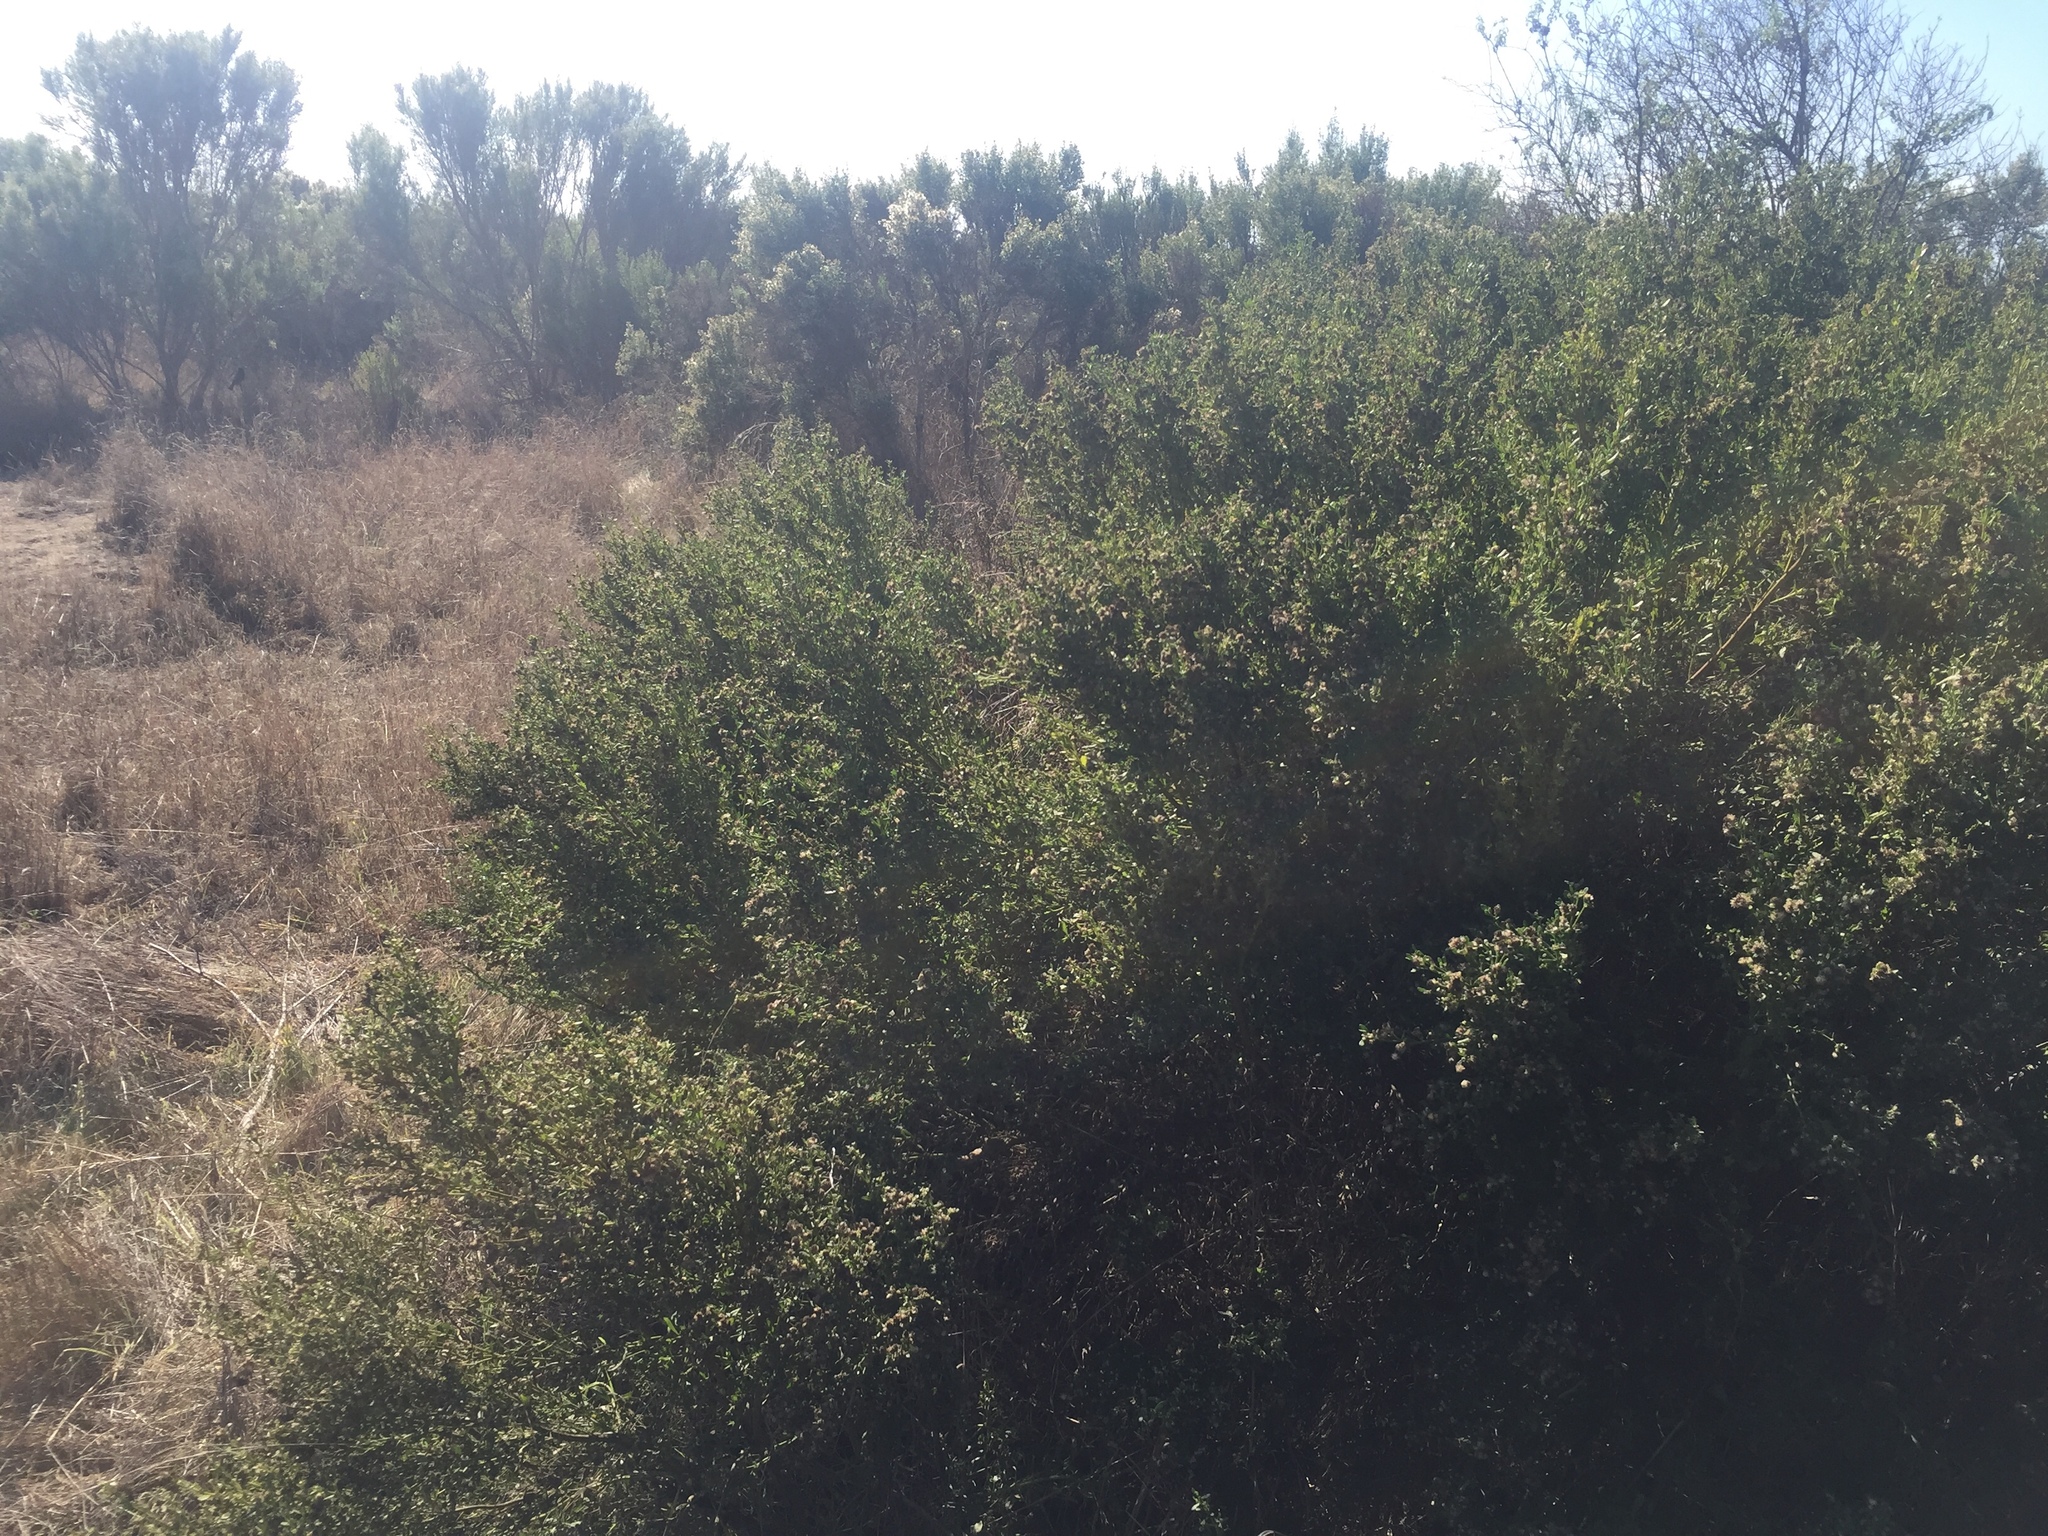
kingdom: Plantae
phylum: Tracheophyta
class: Magnoliopsida
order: Asterales
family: Asteraceae
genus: Baccharis
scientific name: Baccharis pilularis
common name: Coyotebrush
